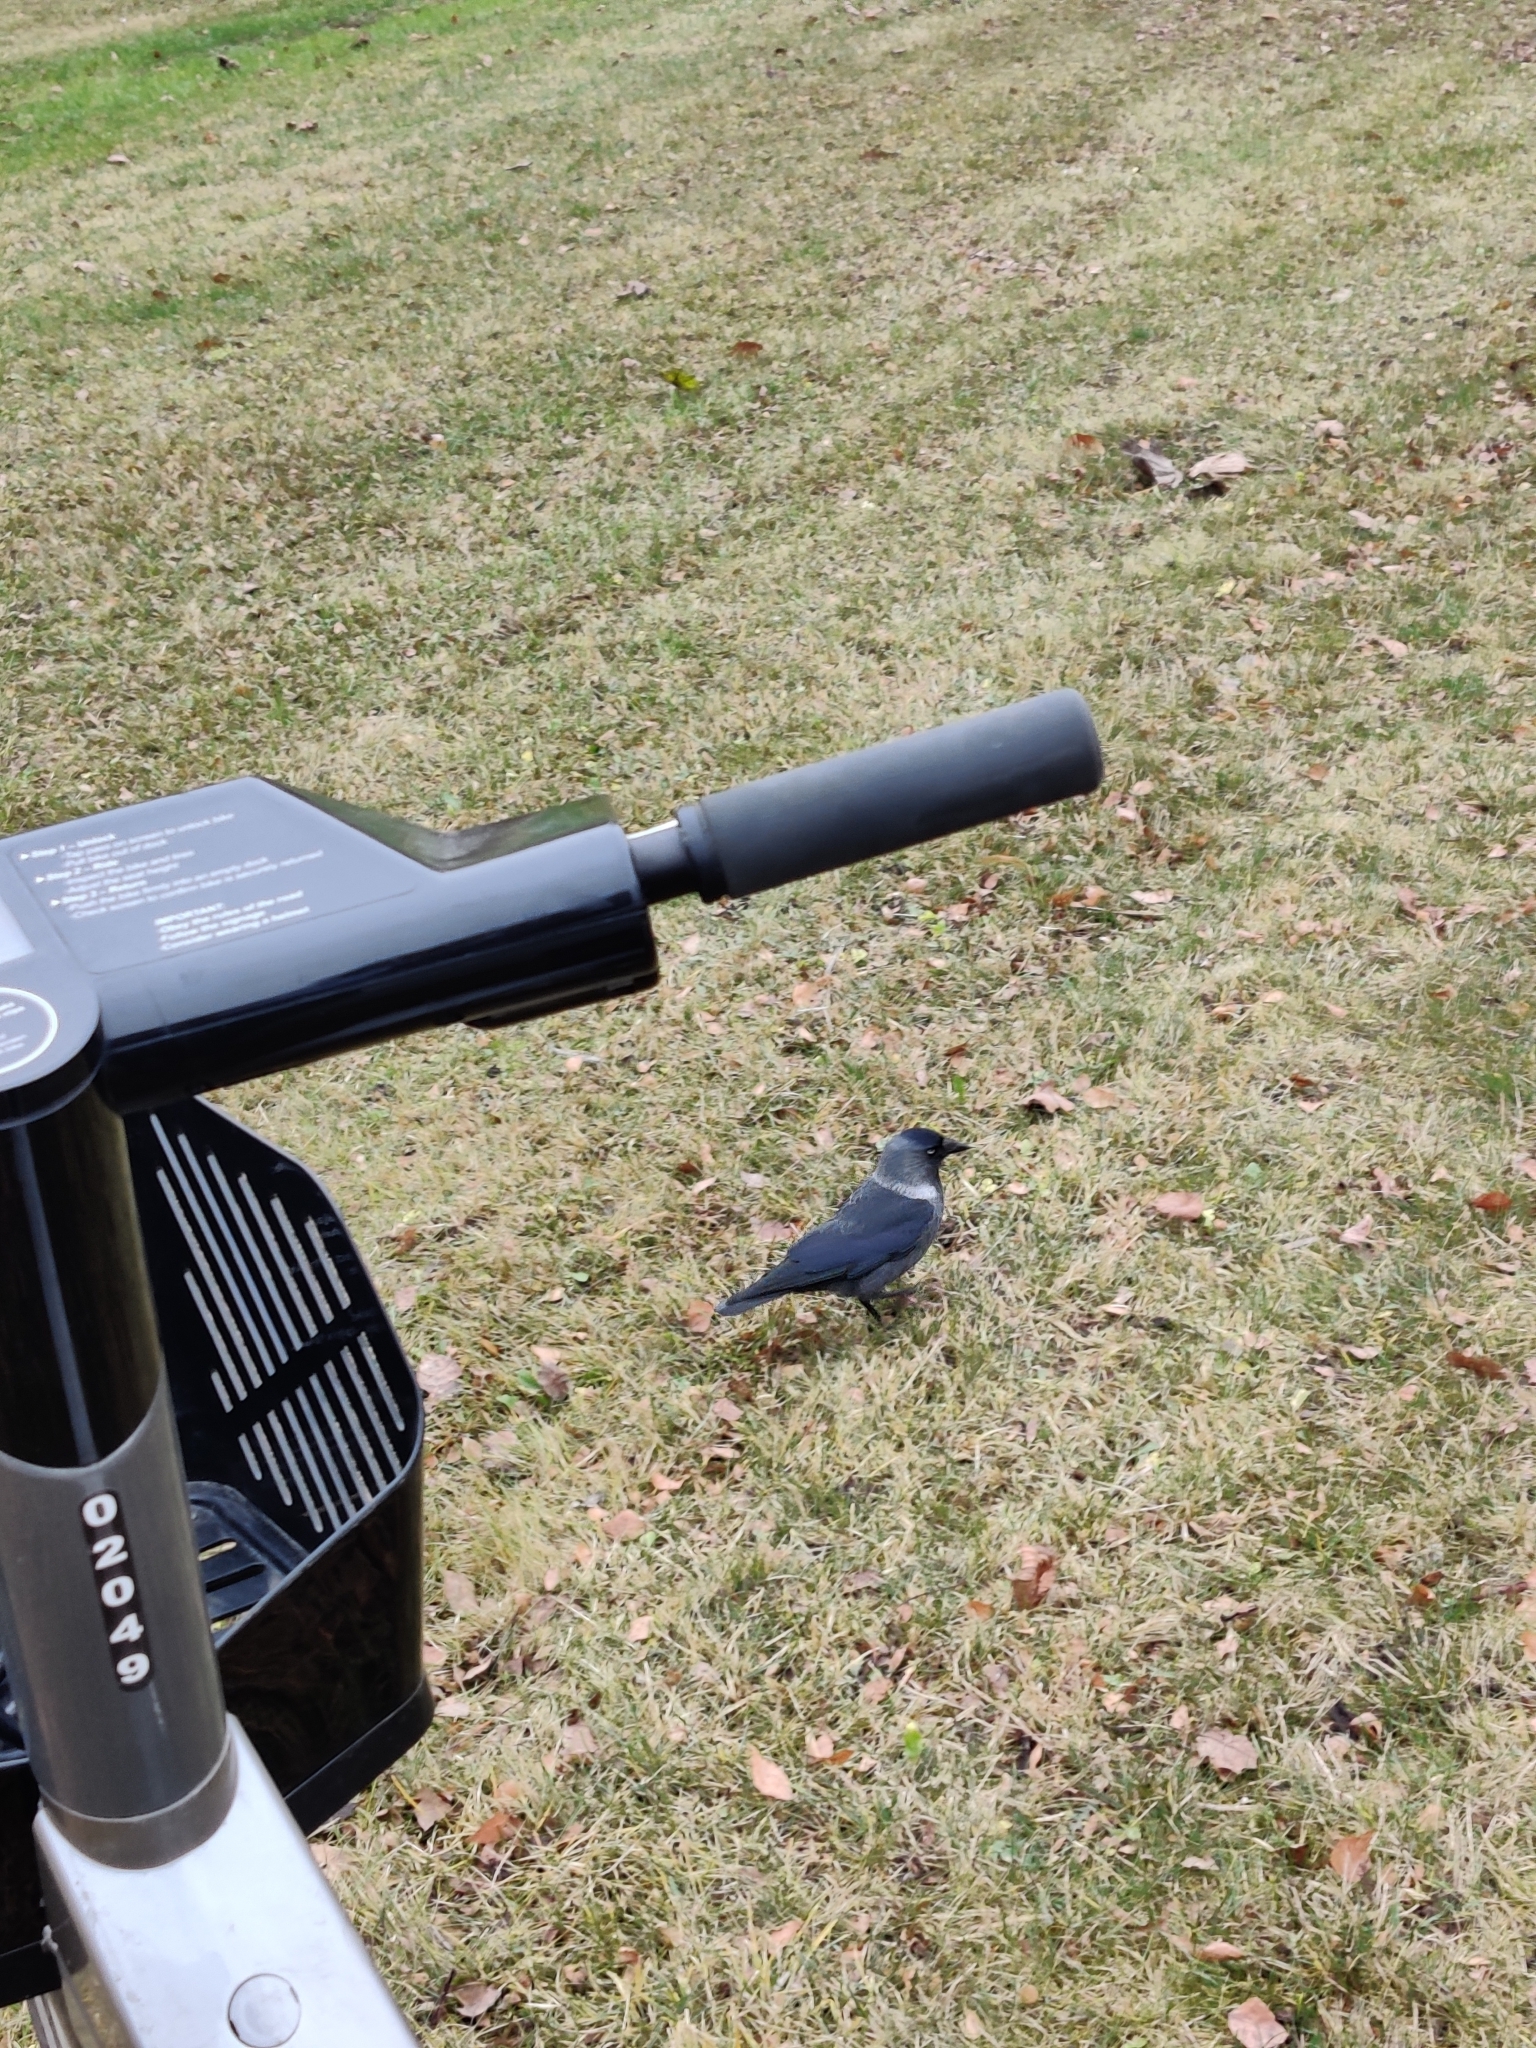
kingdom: Animalia
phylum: Chordata
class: Aves
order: Passeriformes
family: Corvidae
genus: Coloeus
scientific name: Coloeus monedula
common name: Western jackdaw
